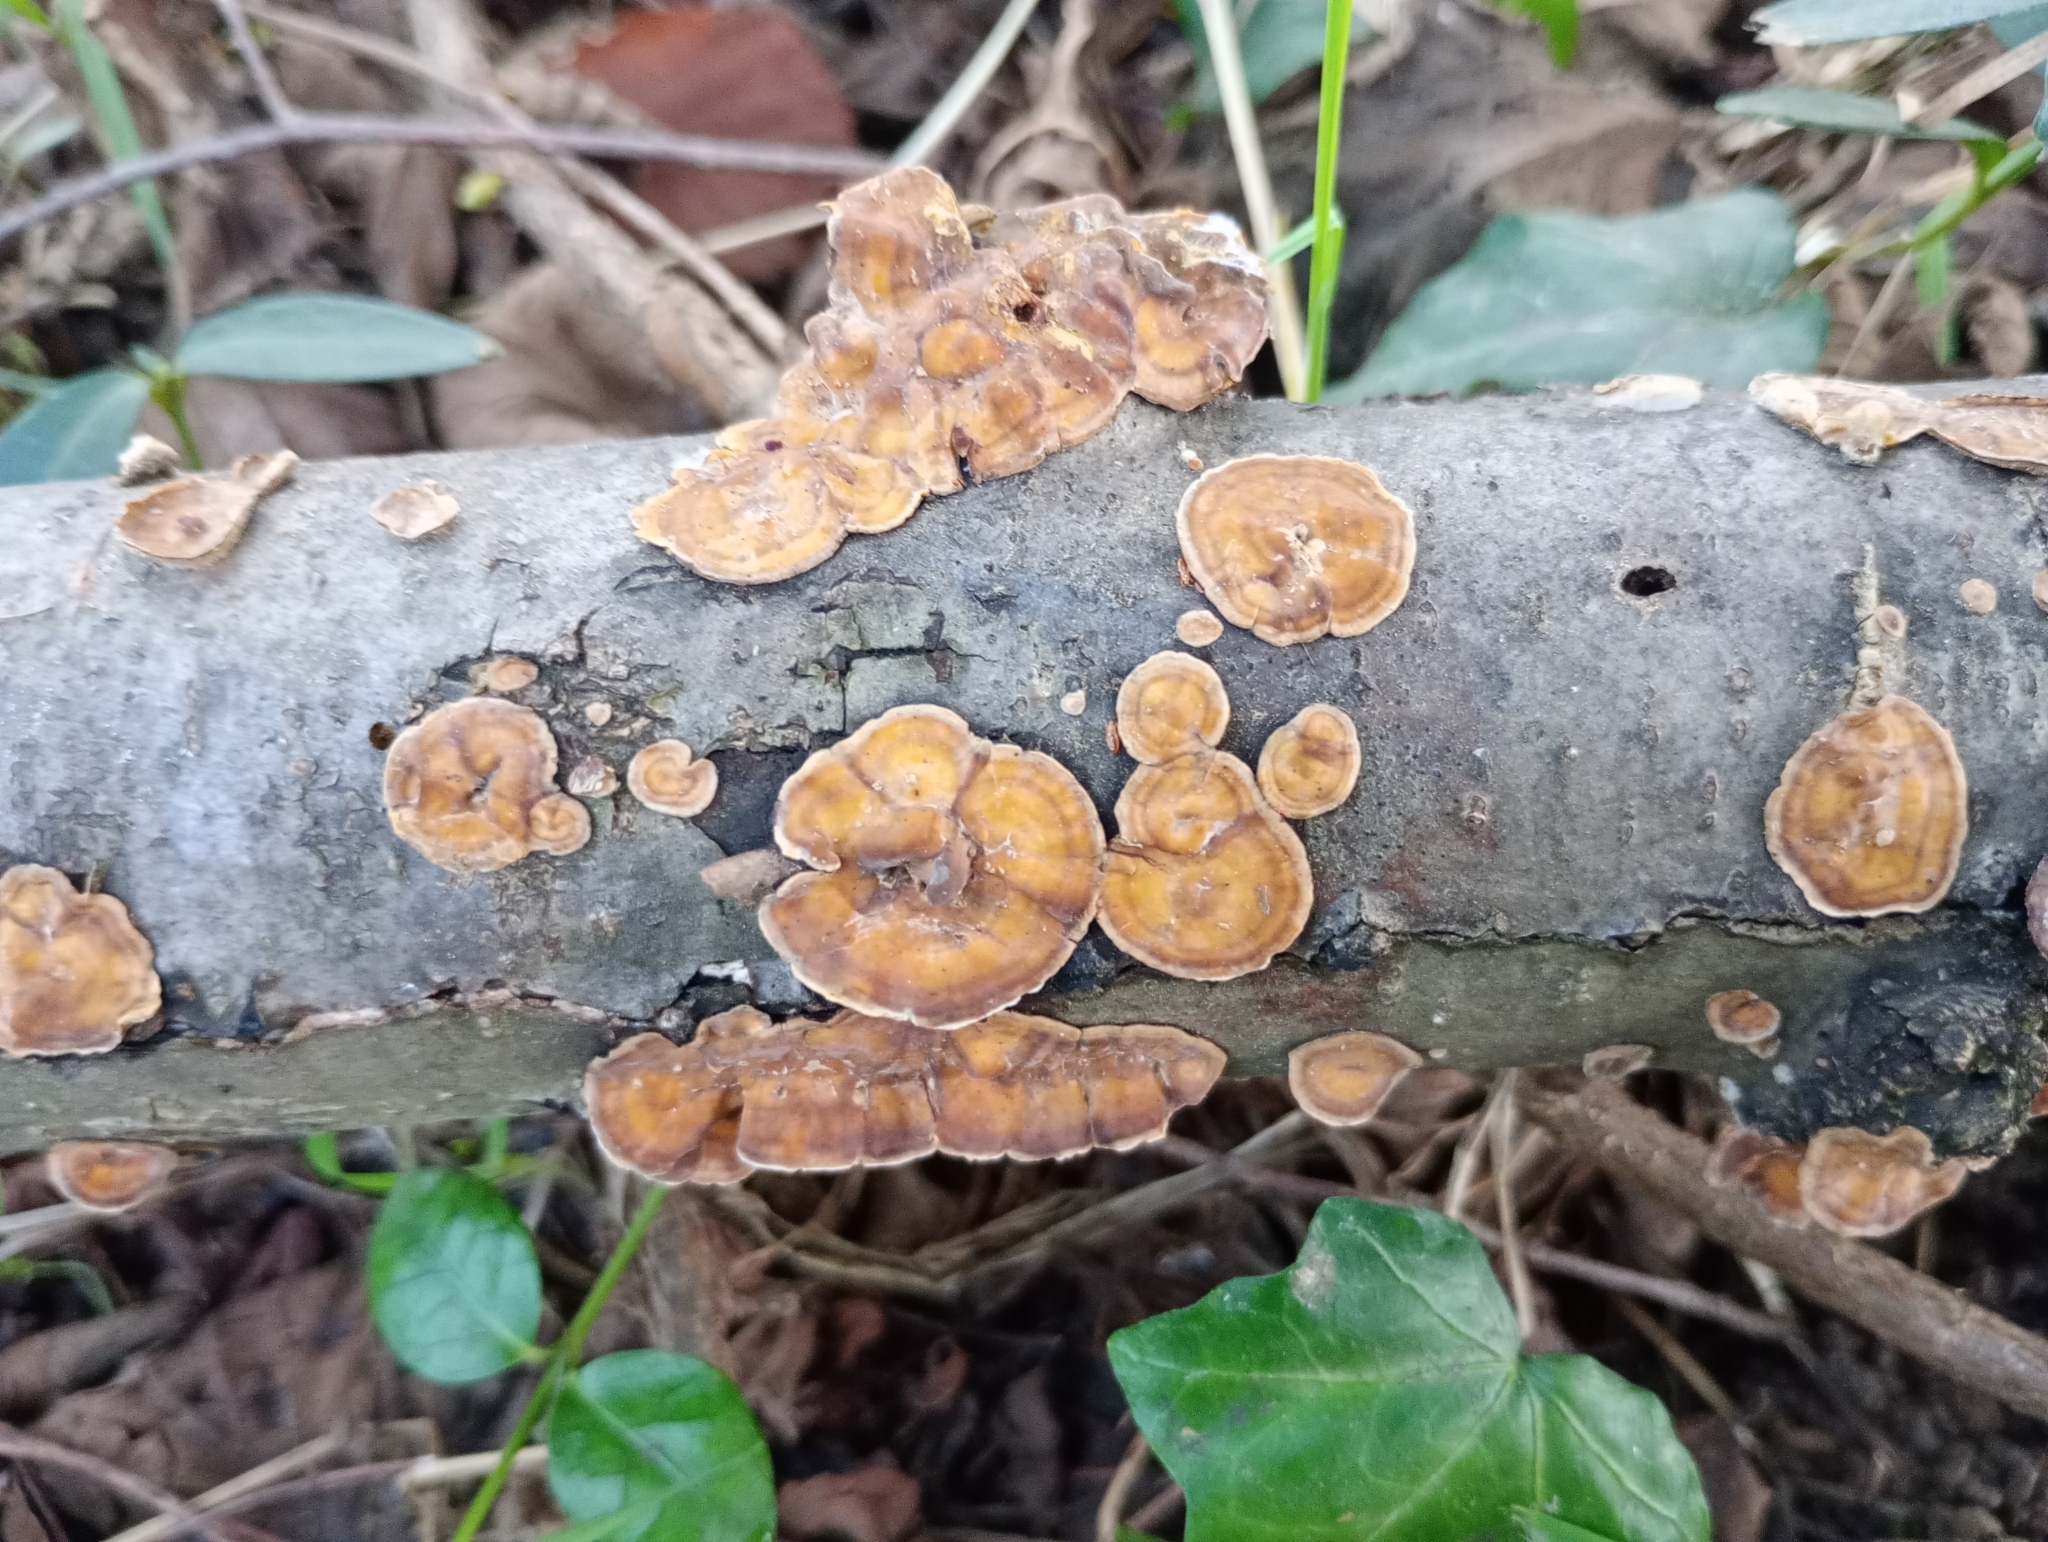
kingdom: Fungi
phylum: Basidiomycota
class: Agaricomycetes
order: Russulales
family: Stereaceae
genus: Stereum
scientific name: Stereum hirsutum
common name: Hairy curtain crust
